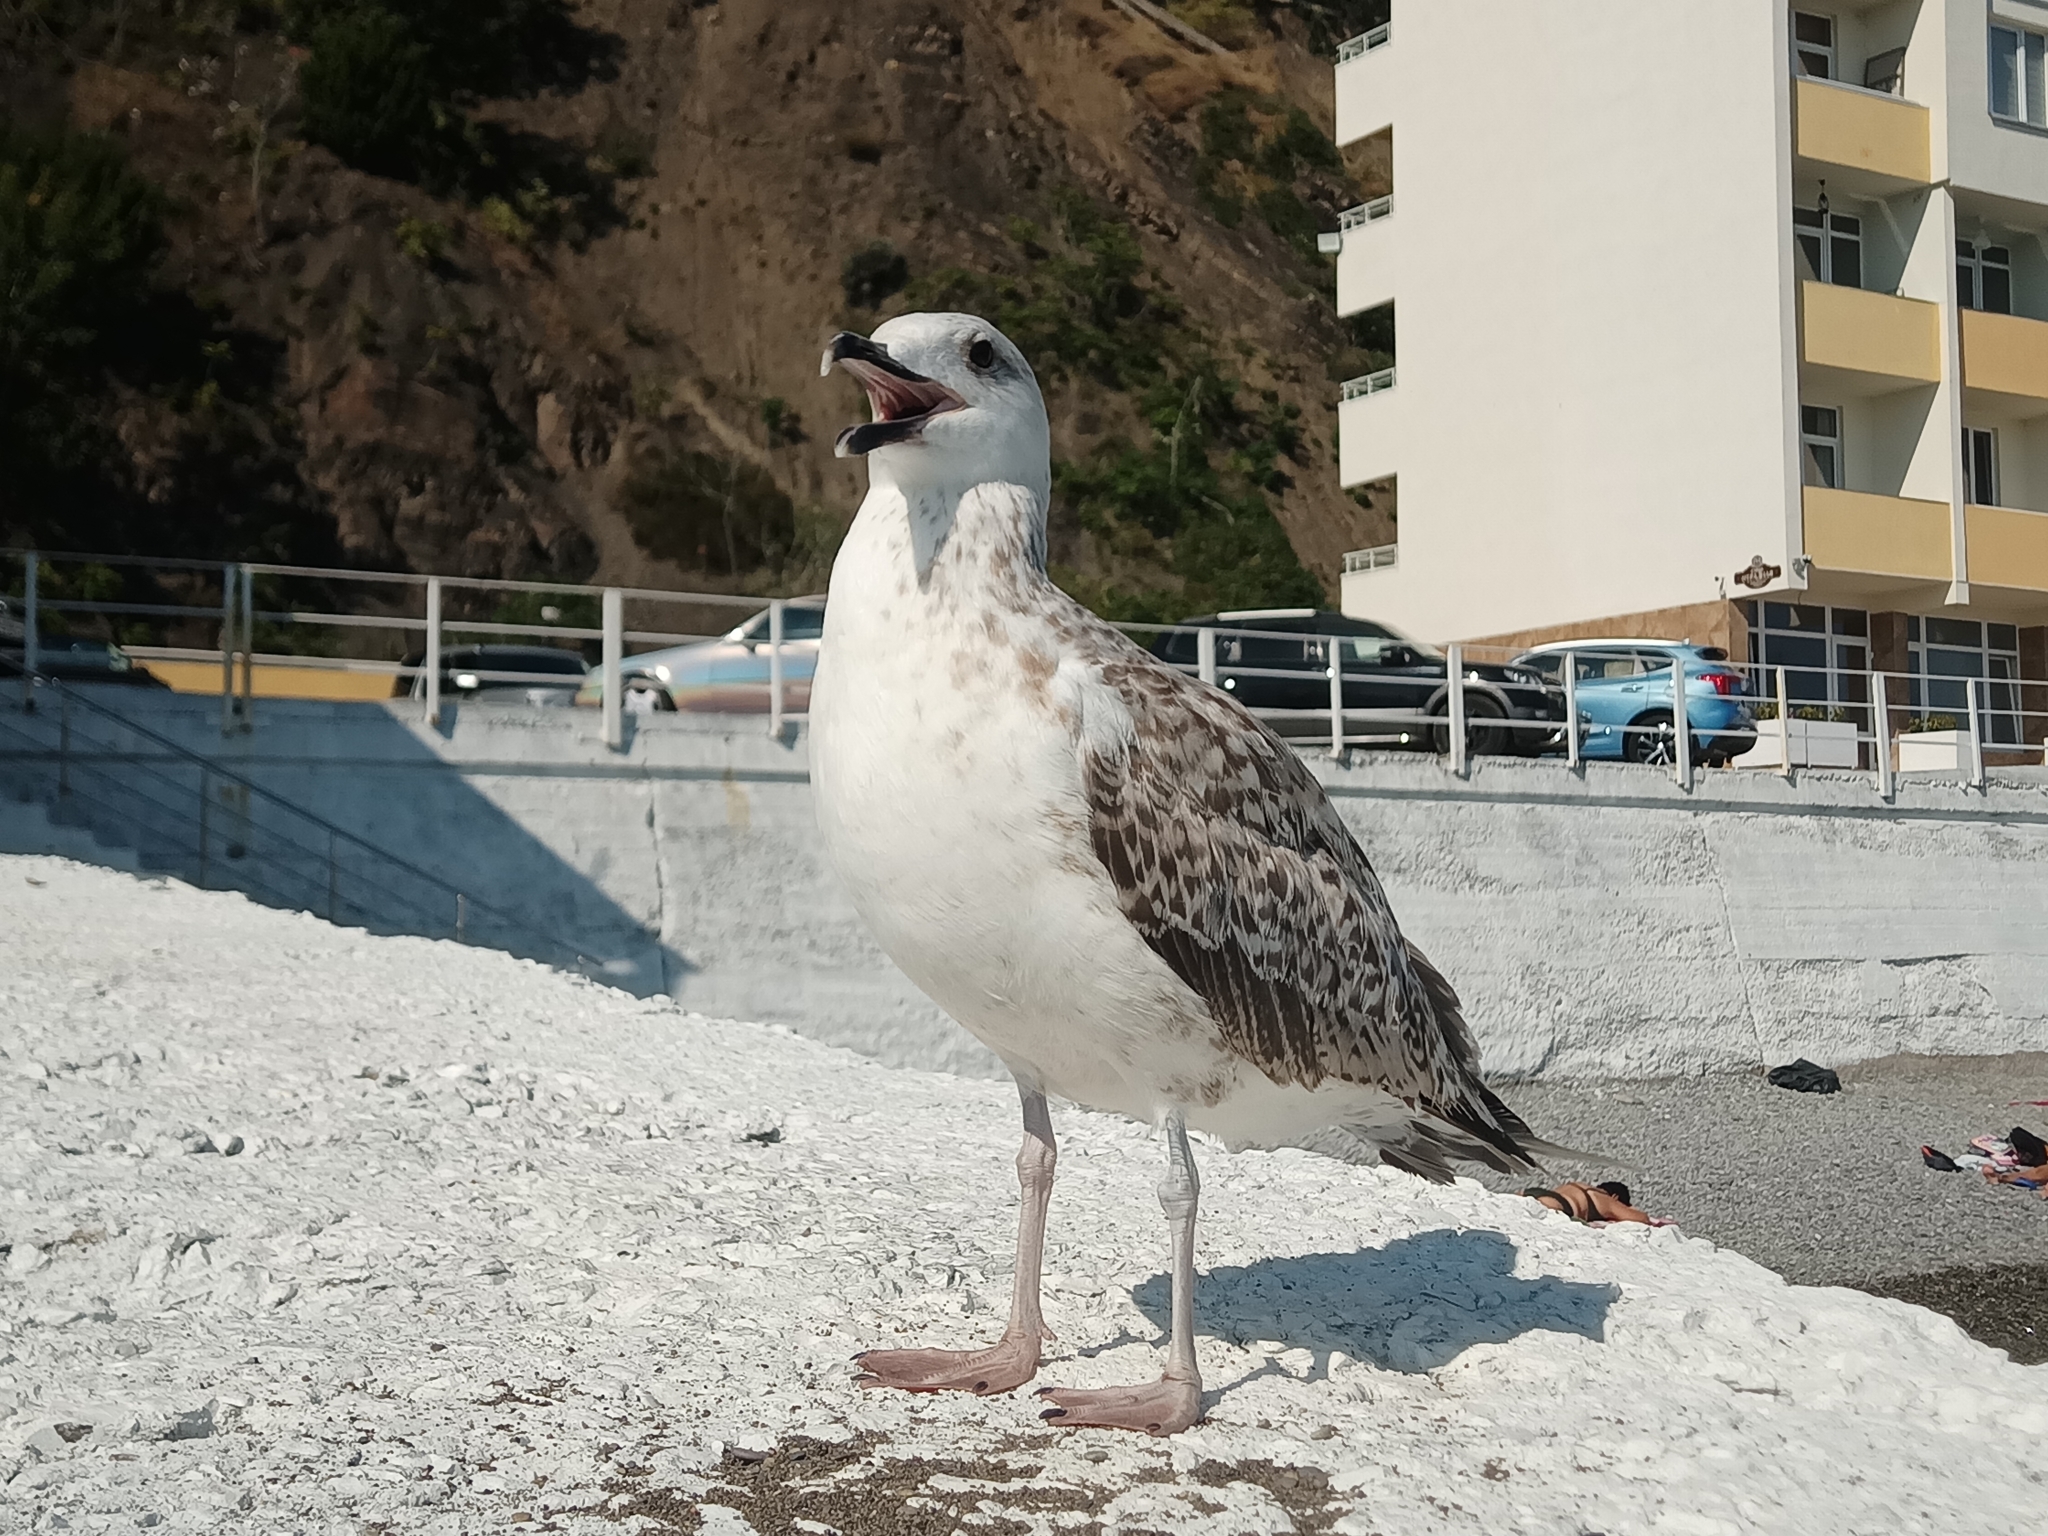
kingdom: Animalia
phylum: Chordata
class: Aves
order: Charadriiformes
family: Laridae
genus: Larus
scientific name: Larus michahellis
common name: Yellow-legged gull
